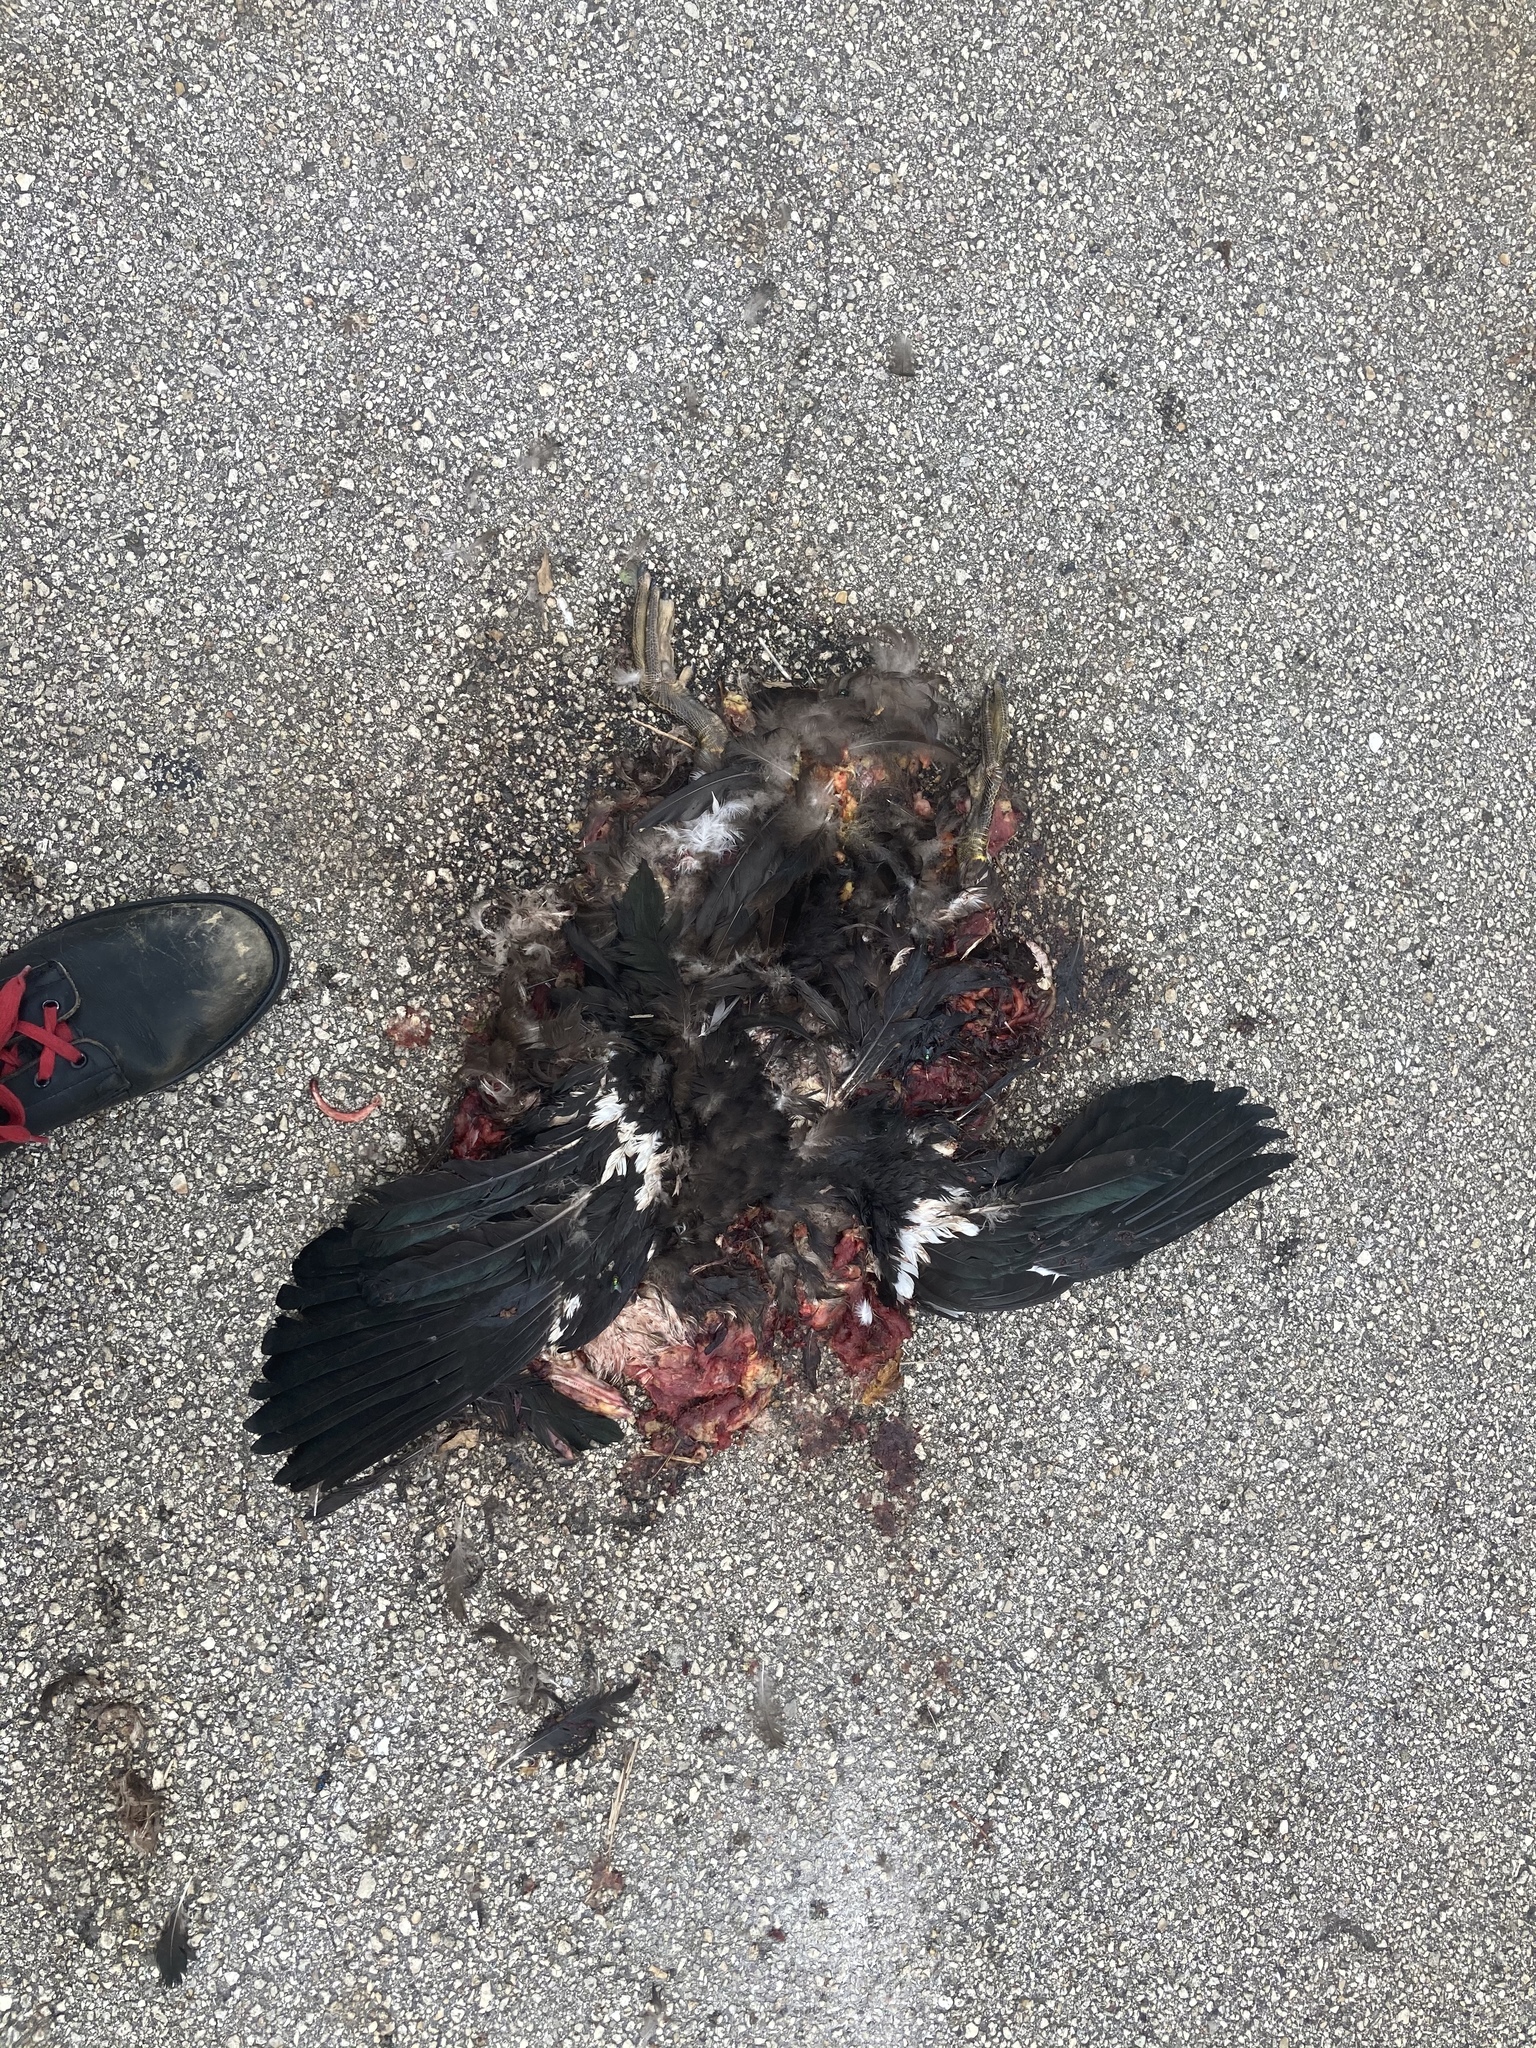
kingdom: Animalia
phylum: Chordata
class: Aves
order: Anseriformes
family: Anatidae
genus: Cairina
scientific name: Cairina moschata
